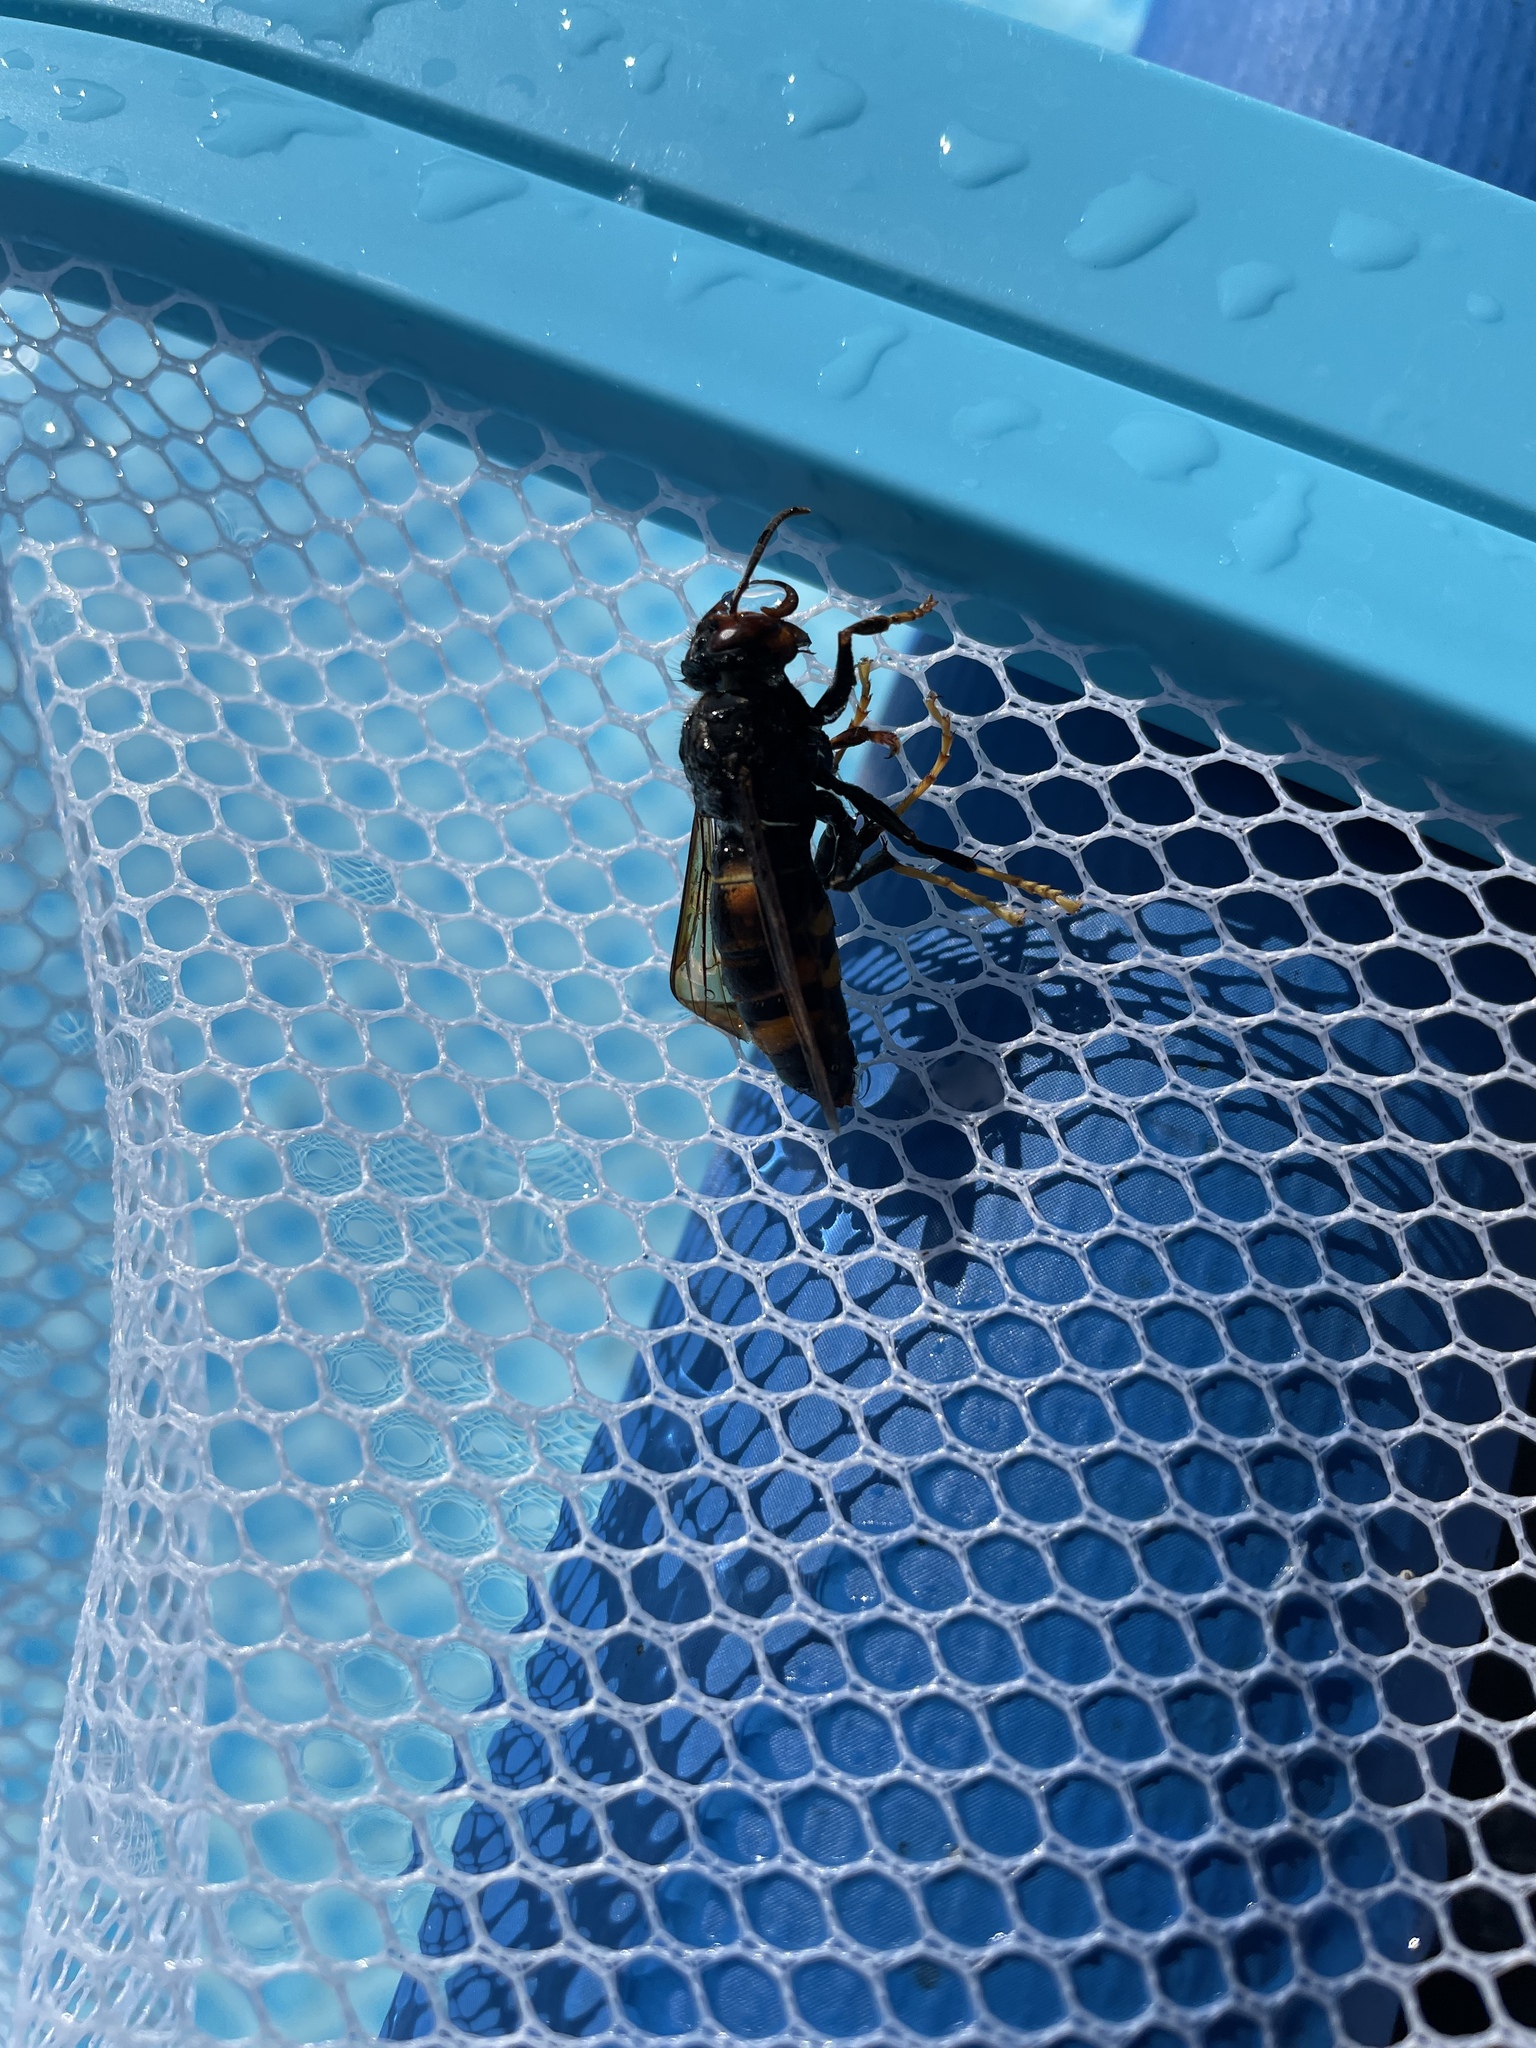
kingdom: Animalia
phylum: Arthropoda
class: Insecta
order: Hymenoptera
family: Vespidae
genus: Vespa
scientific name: Vespa velutina
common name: Asian hornet
